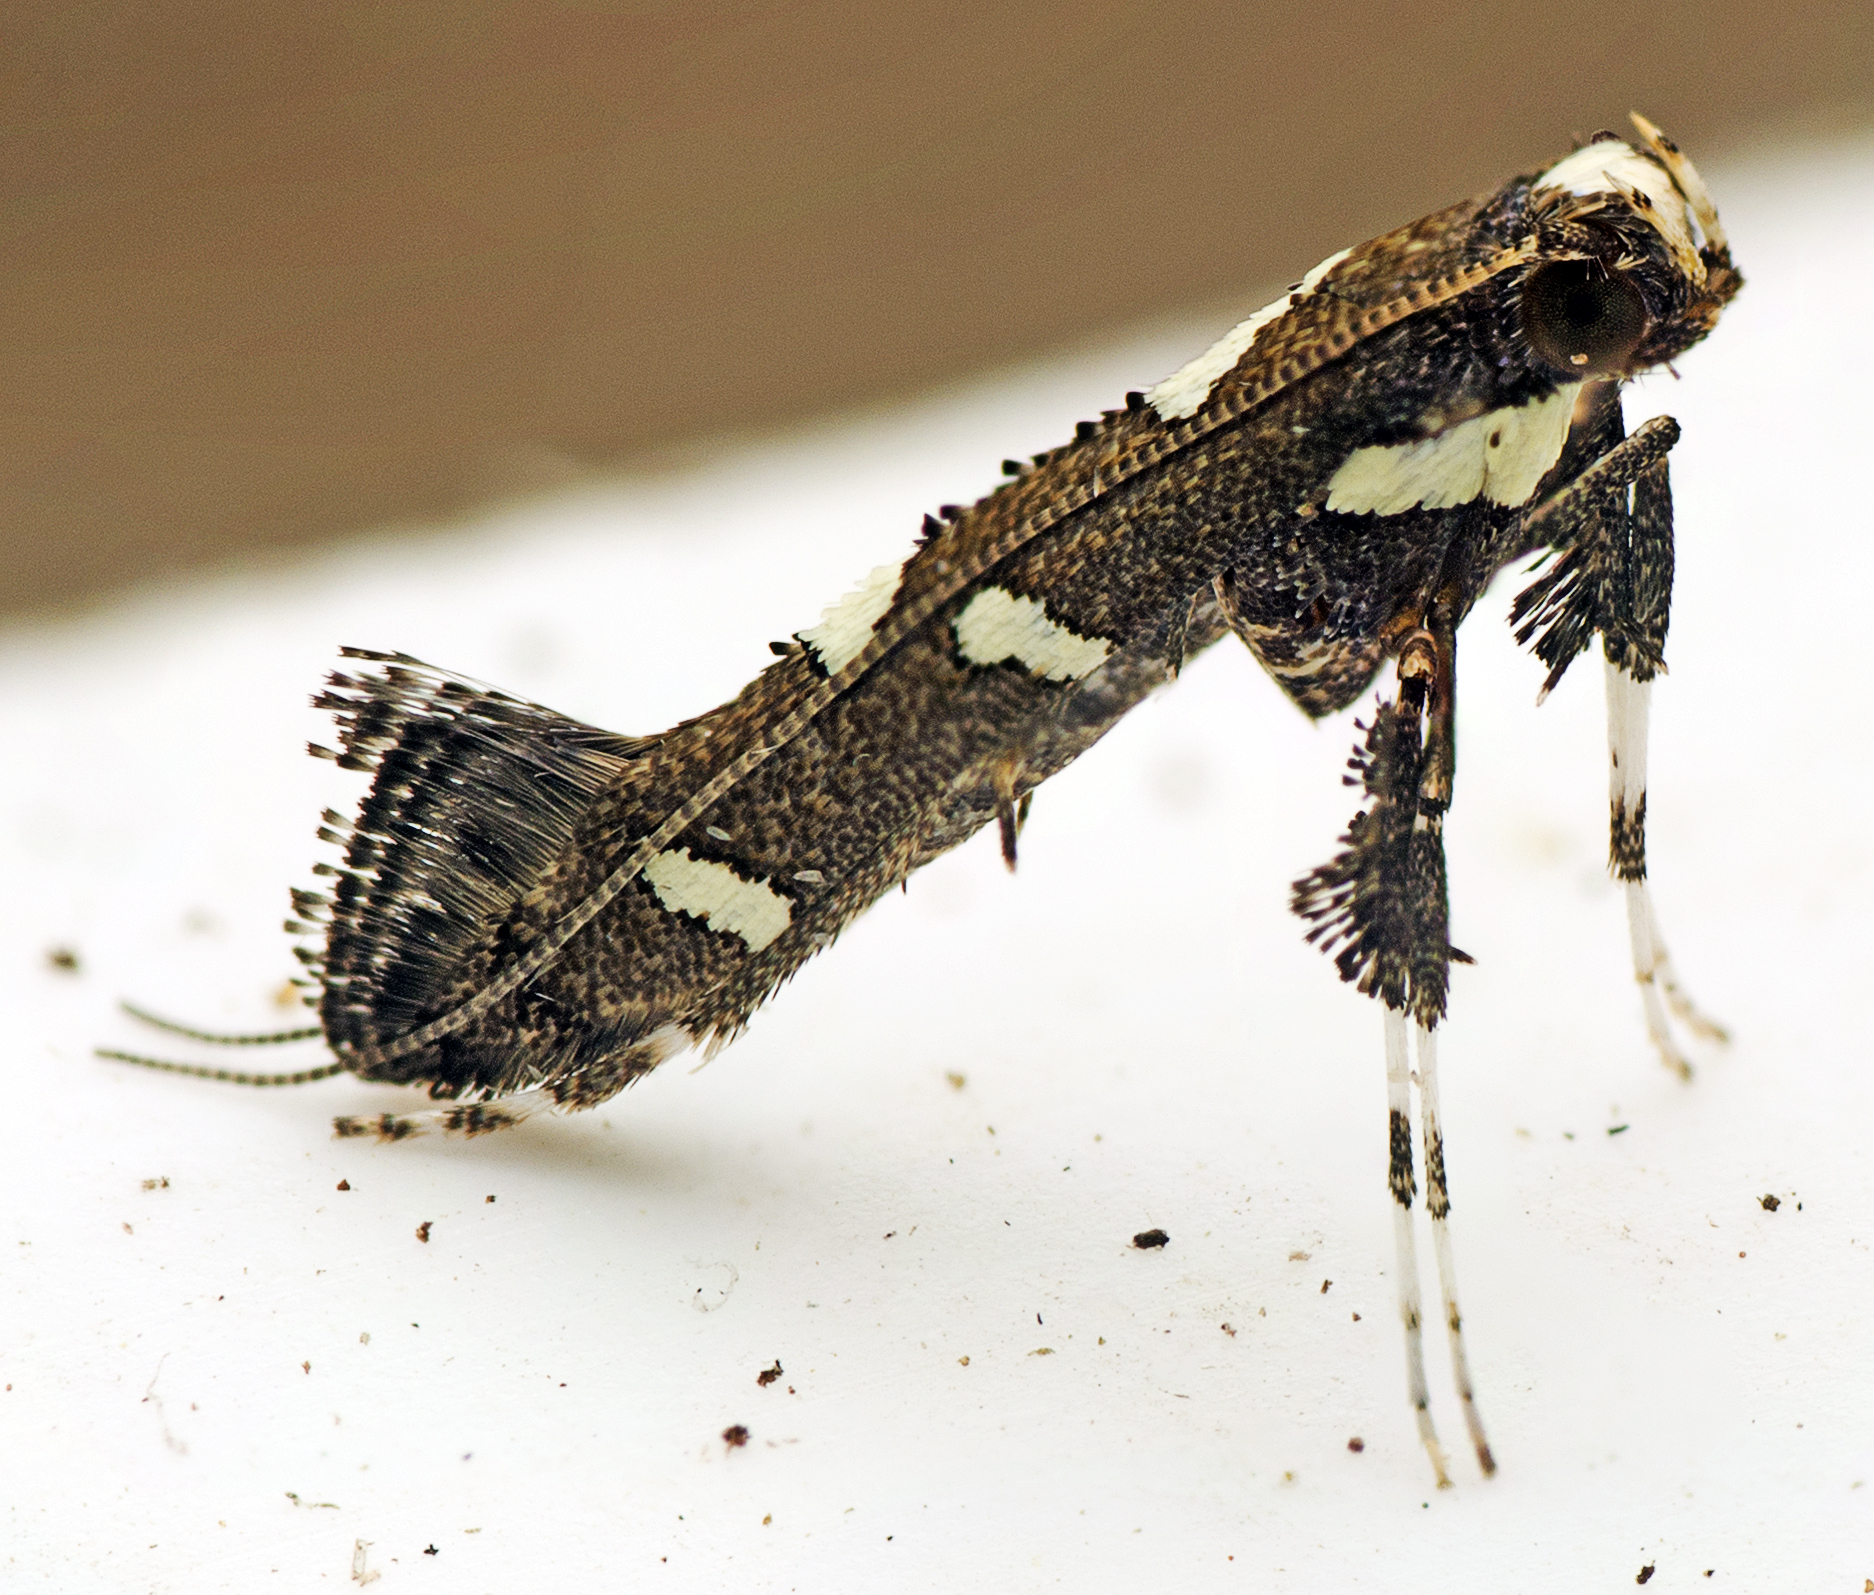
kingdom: Animalia
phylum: Arthropoda
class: Insecta
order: Lepidoptera
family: Gracillariidae
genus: Caloptilia
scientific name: Caloptilia adelosema
